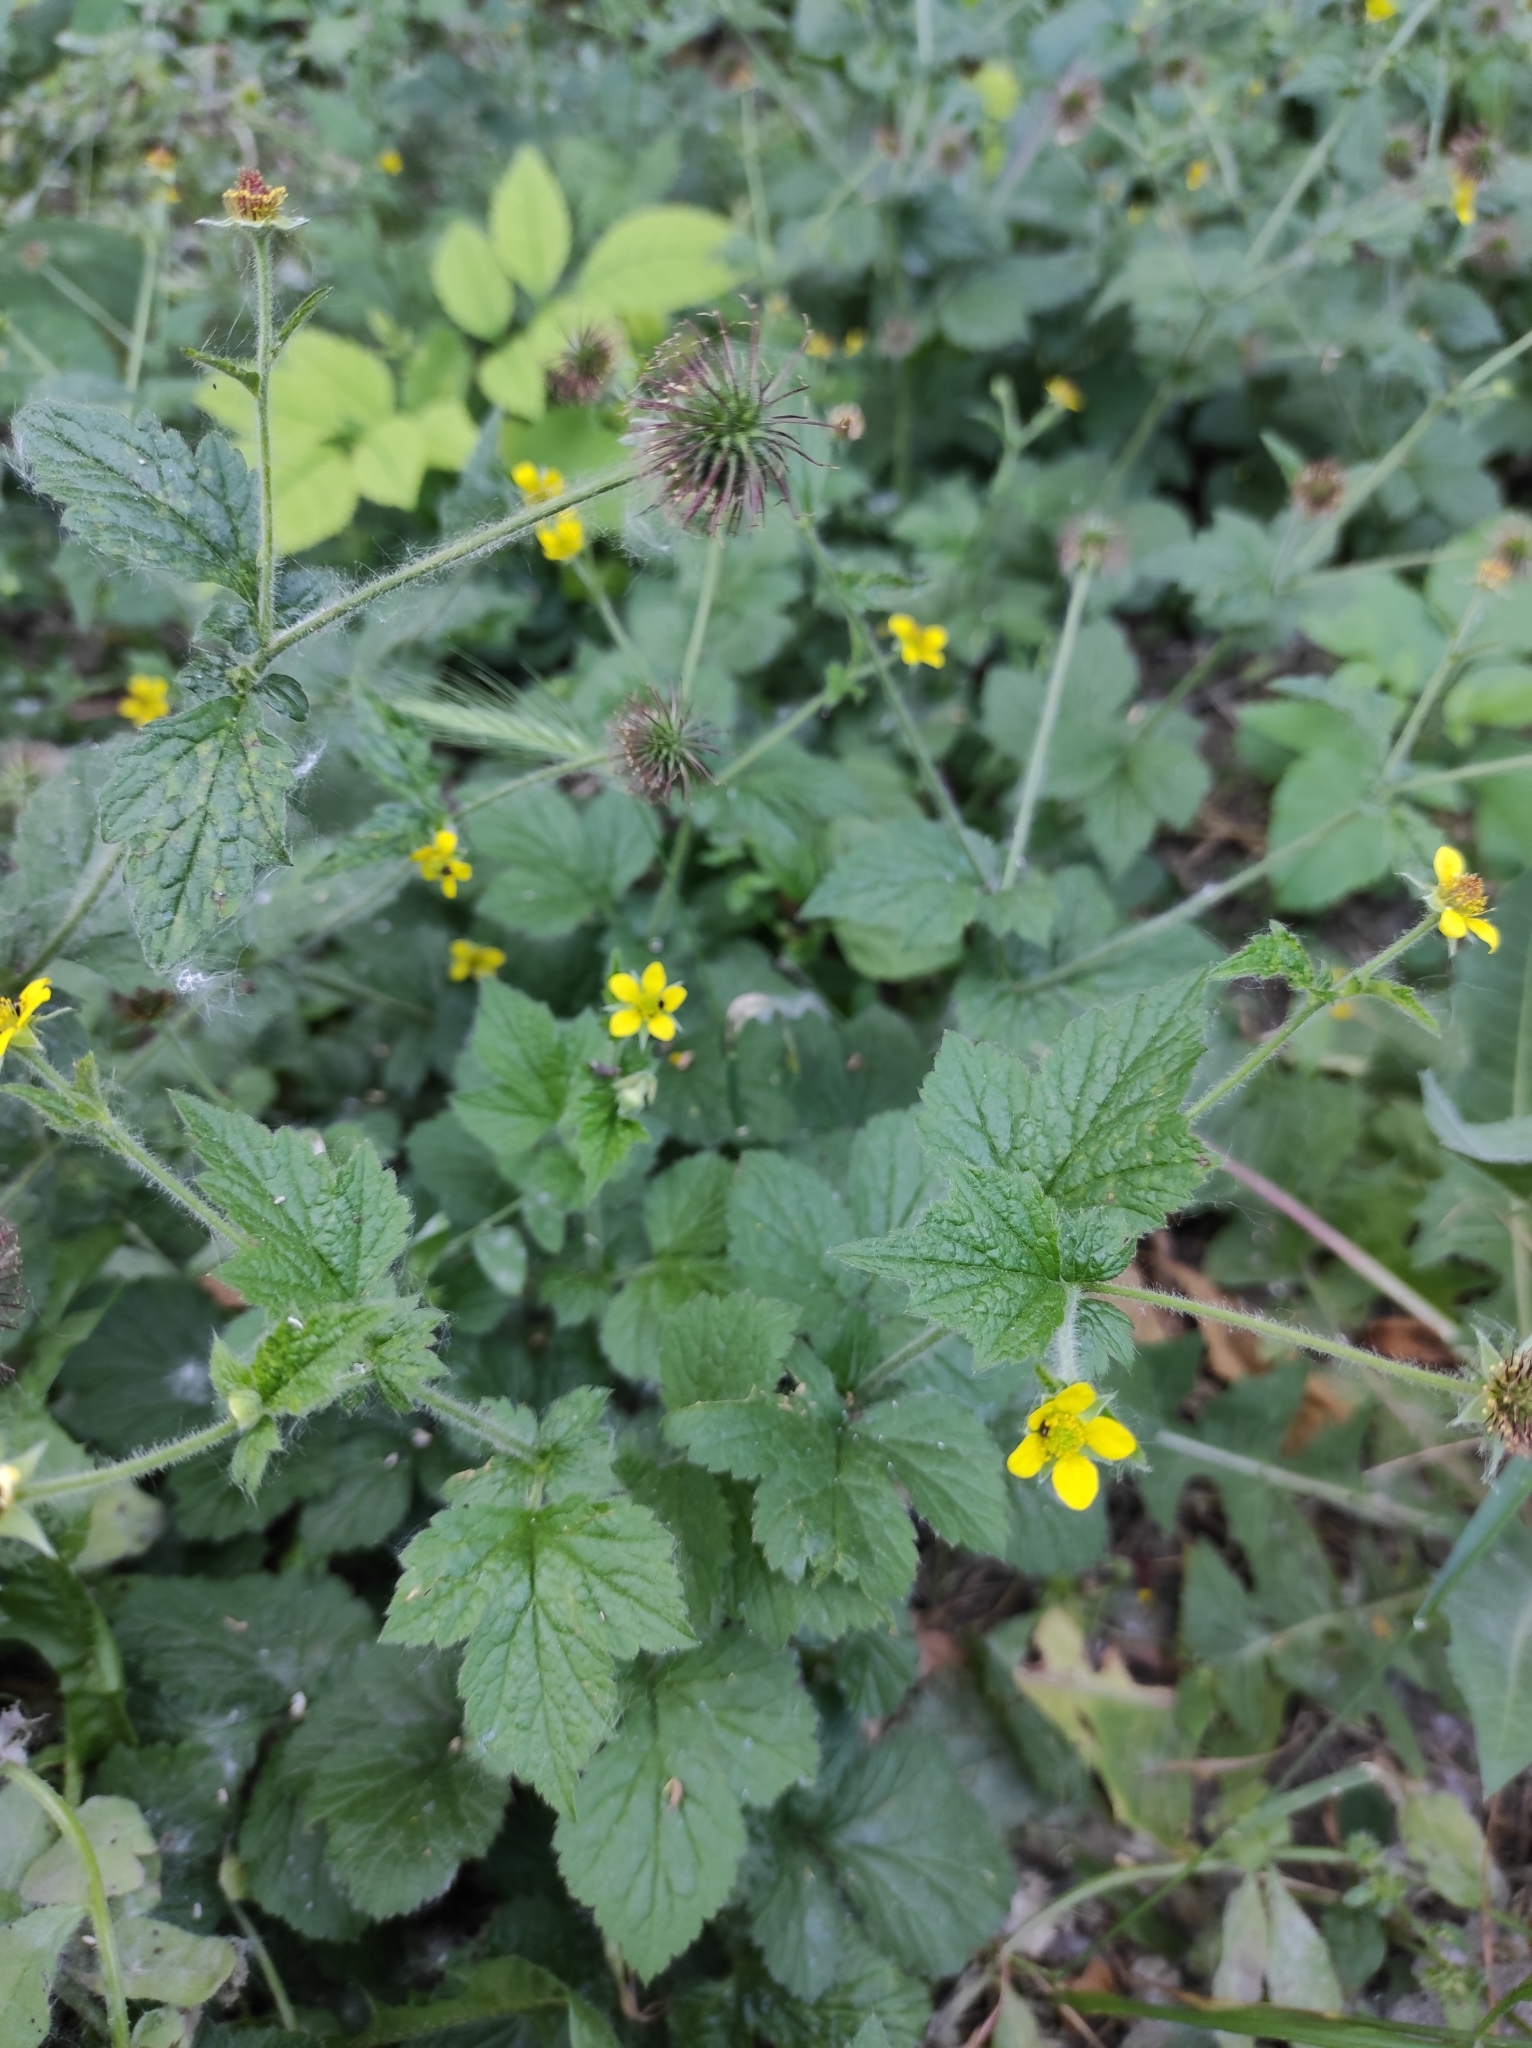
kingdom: Plantae
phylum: Tracheophyta
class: Magnoliopsida
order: Rosales
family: Rosaceae
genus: Geum
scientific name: Geum urbanum
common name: Wood avens
